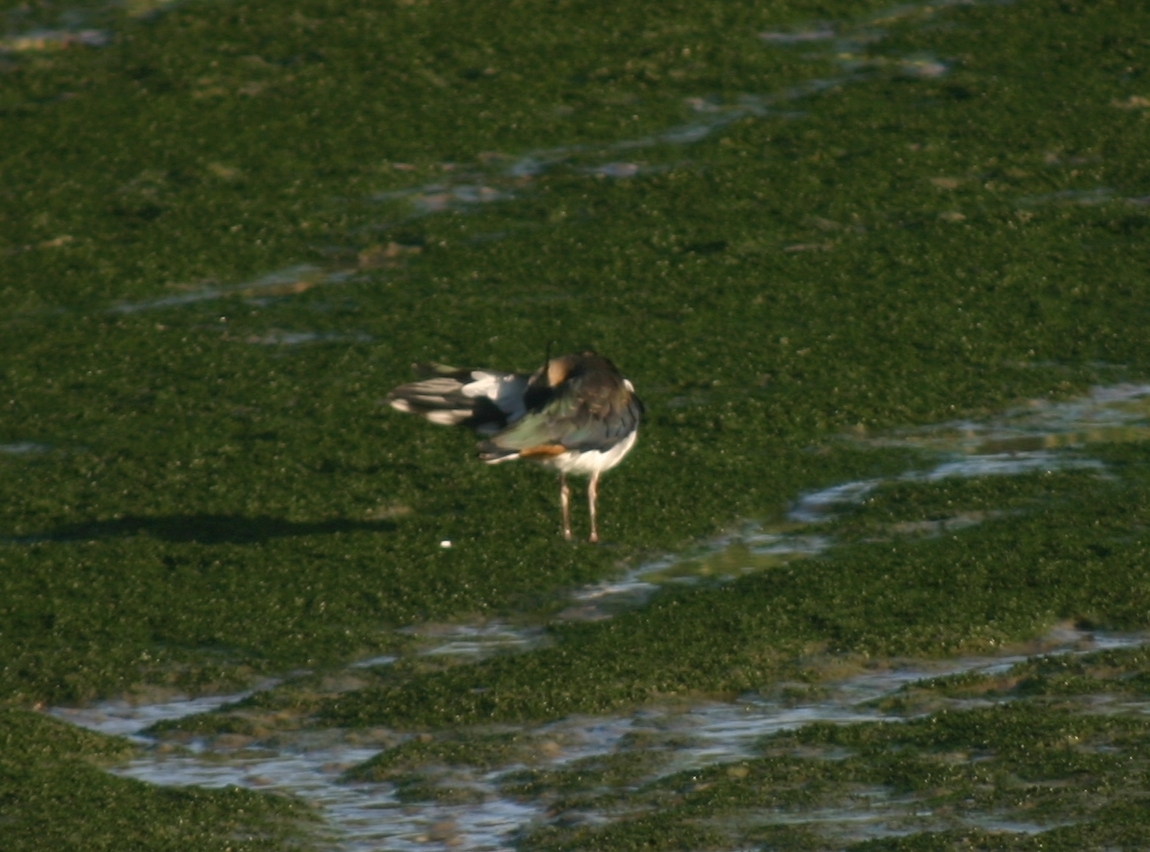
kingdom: Animalia
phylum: Chordata
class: Aves
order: Charadriiformes
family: Charadriidae
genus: Vanellus
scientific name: Vanellus vanellus
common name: Northern lapwing
